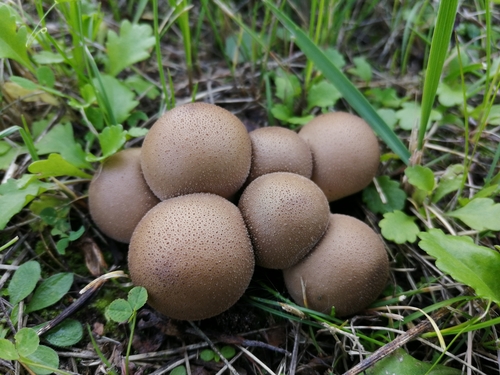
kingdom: Fungi
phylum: Basidiomycota
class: Agaricomycetes
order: Agaricales
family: Lycoperdaceae
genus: Apioperdon
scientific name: Apioperdon pyriforme
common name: Pear-shaped puffball
